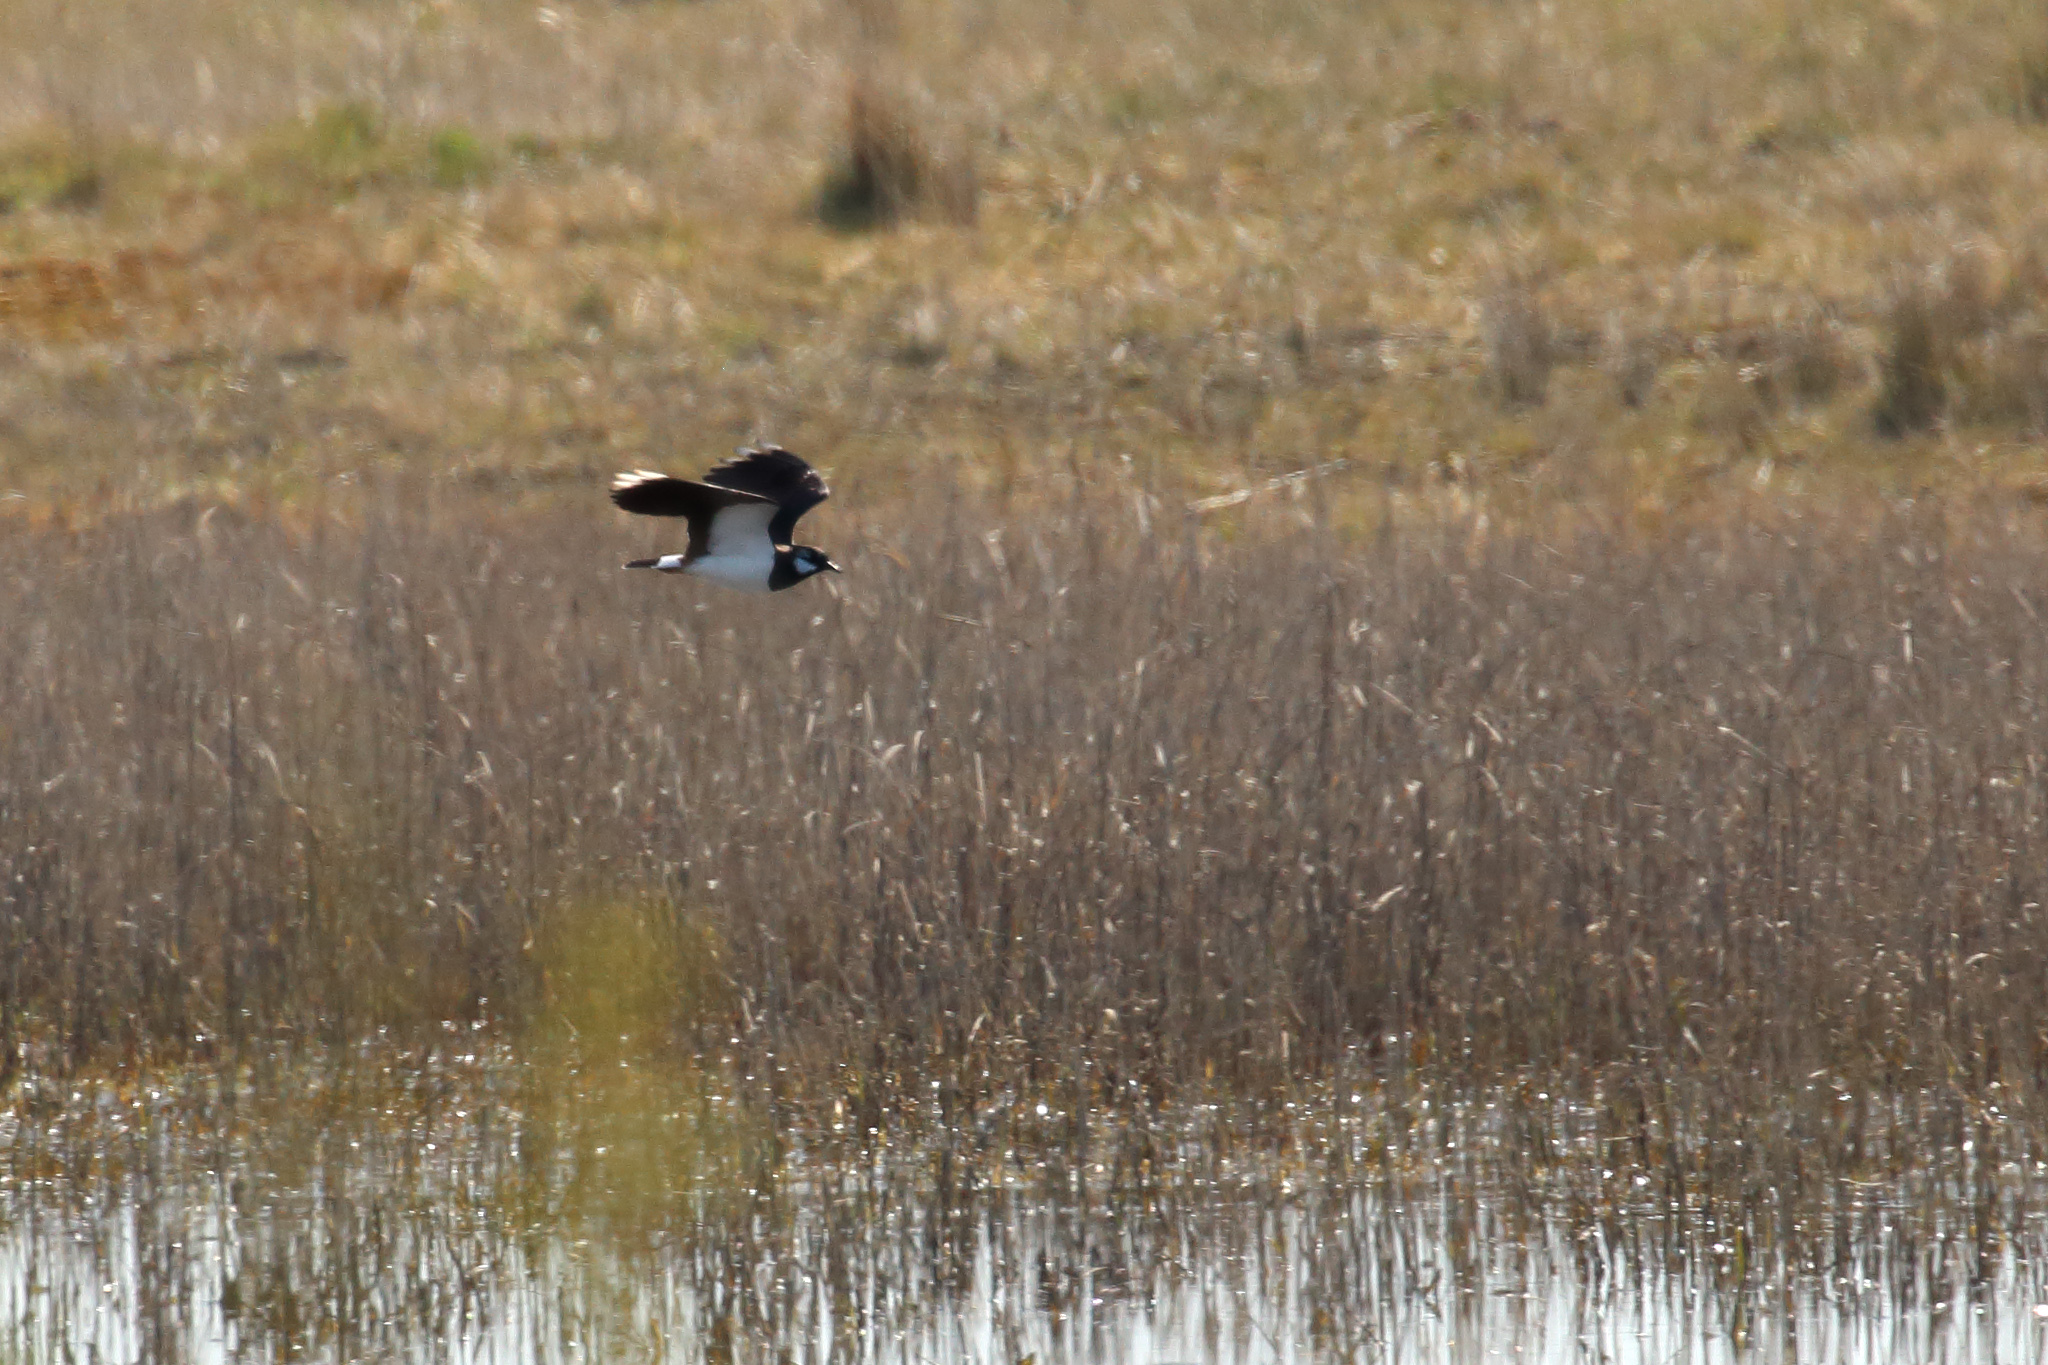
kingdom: Animalia
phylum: Chordata
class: Aves
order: Charadriiformes
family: Charadriidae
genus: Vanellus
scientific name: Vanellus vanellus
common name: Northern lapwing
